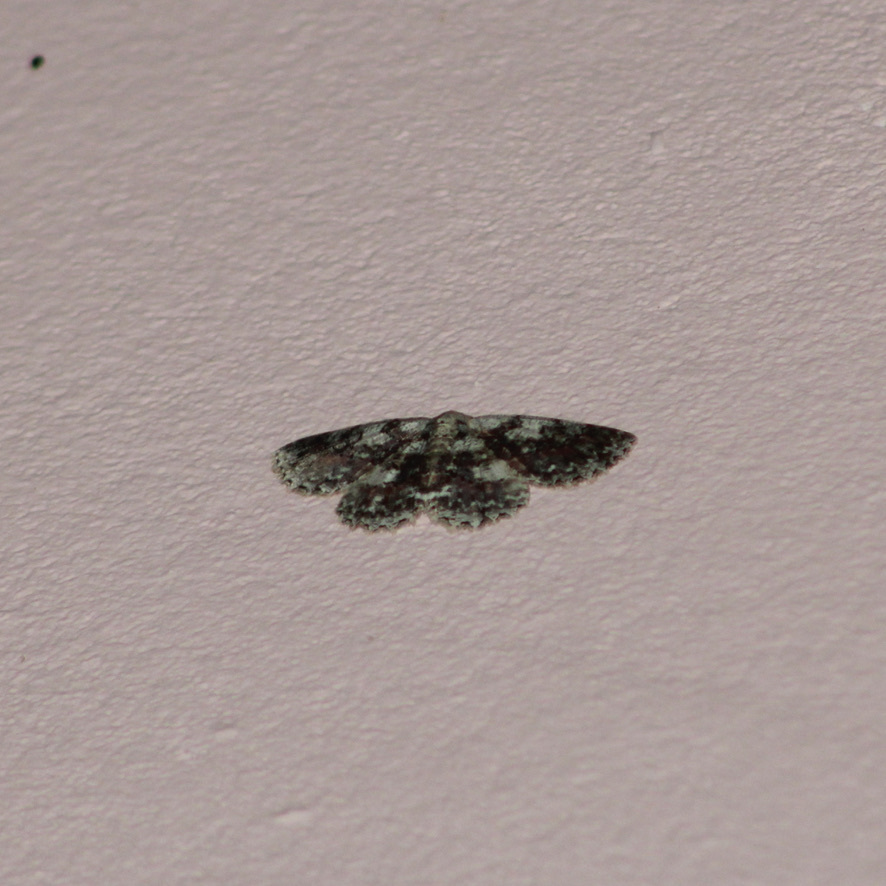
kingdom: Animalia
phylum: Arthropoda
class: Insecta
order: Lepidoptera
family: Geometridae
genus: Bryoptera
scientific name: Bryoptera hypomelas
